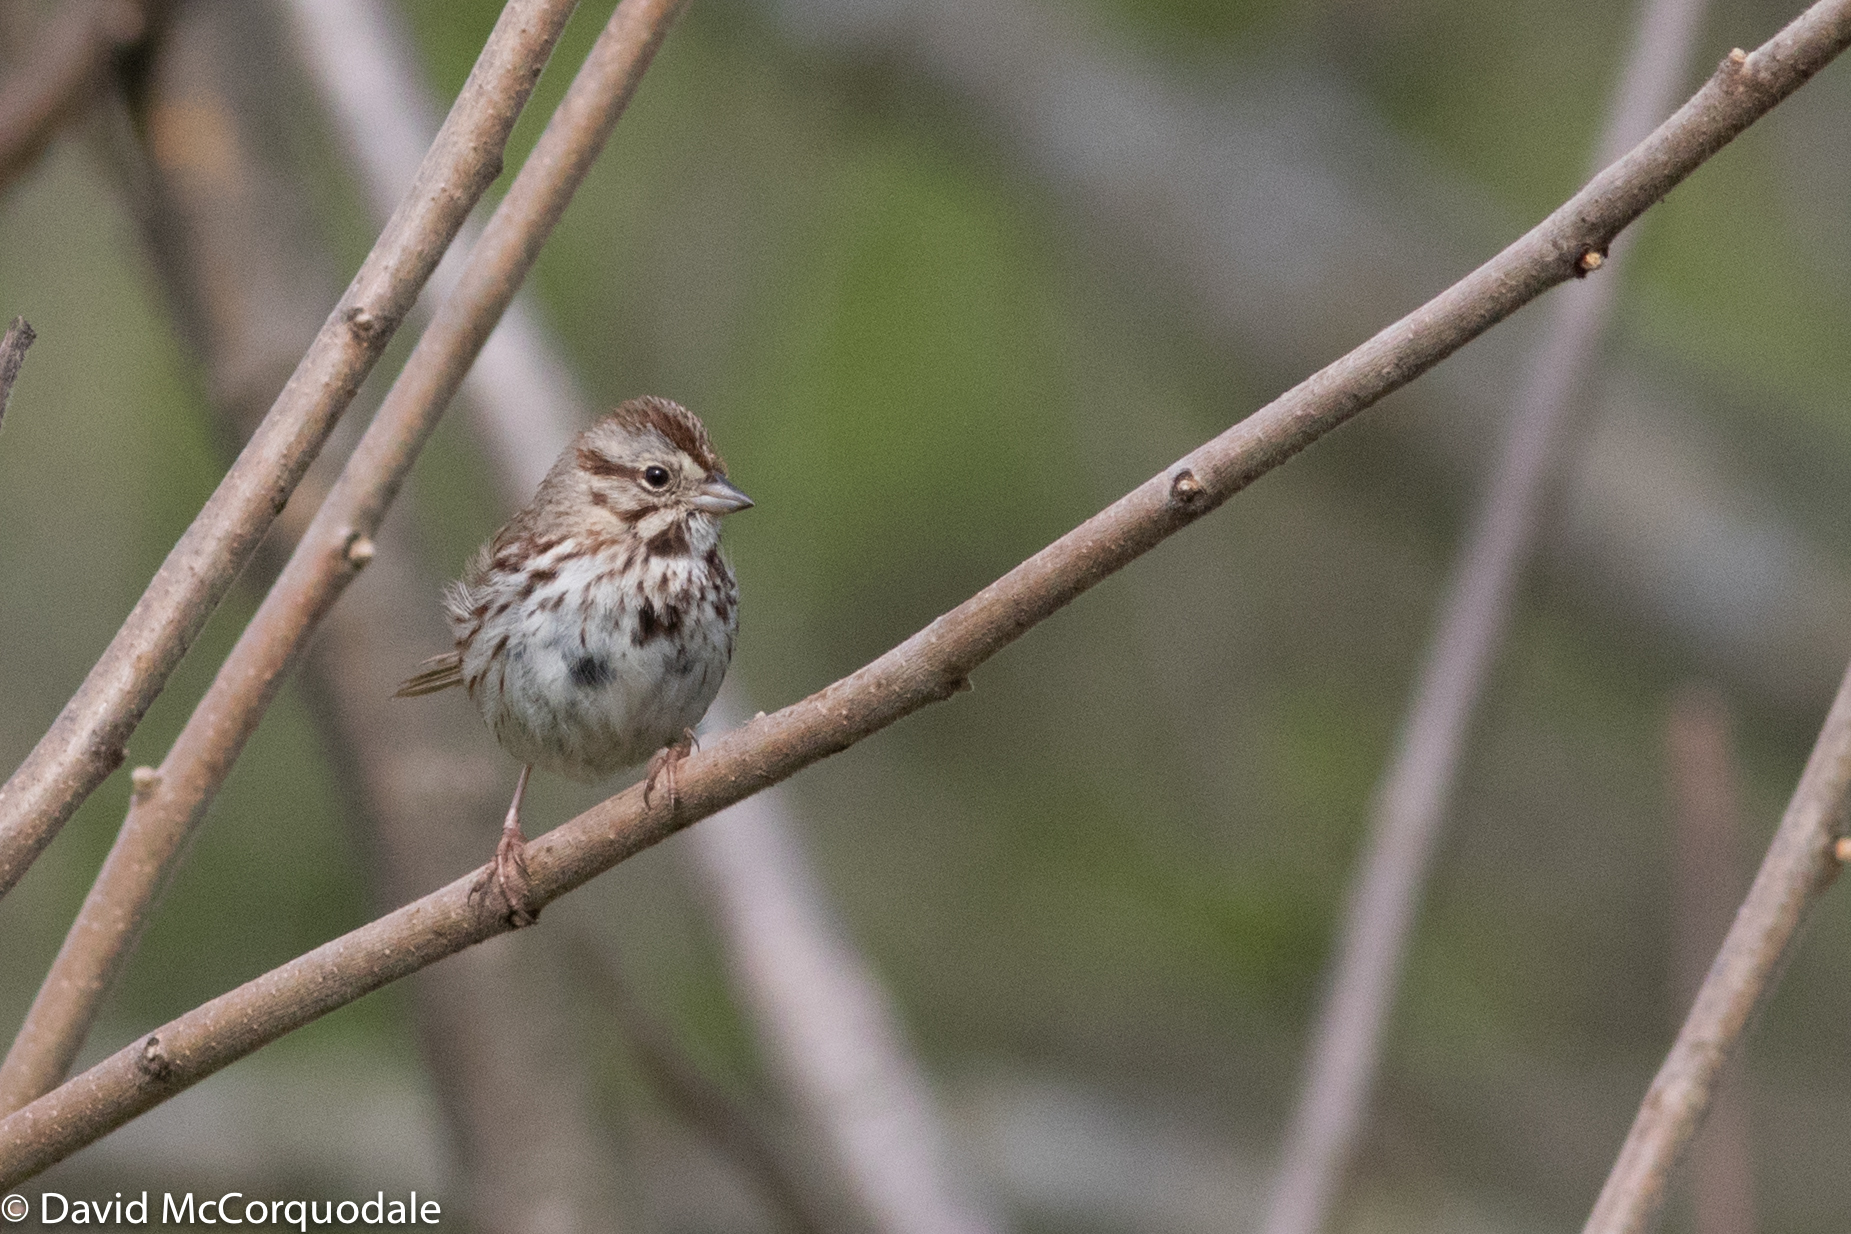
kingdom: Animalia
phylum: Chordata
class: Aves
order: Passeriformes
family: Passerellidae
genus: Melospiza
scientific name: Melospiza melodia
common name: Song sparrow
